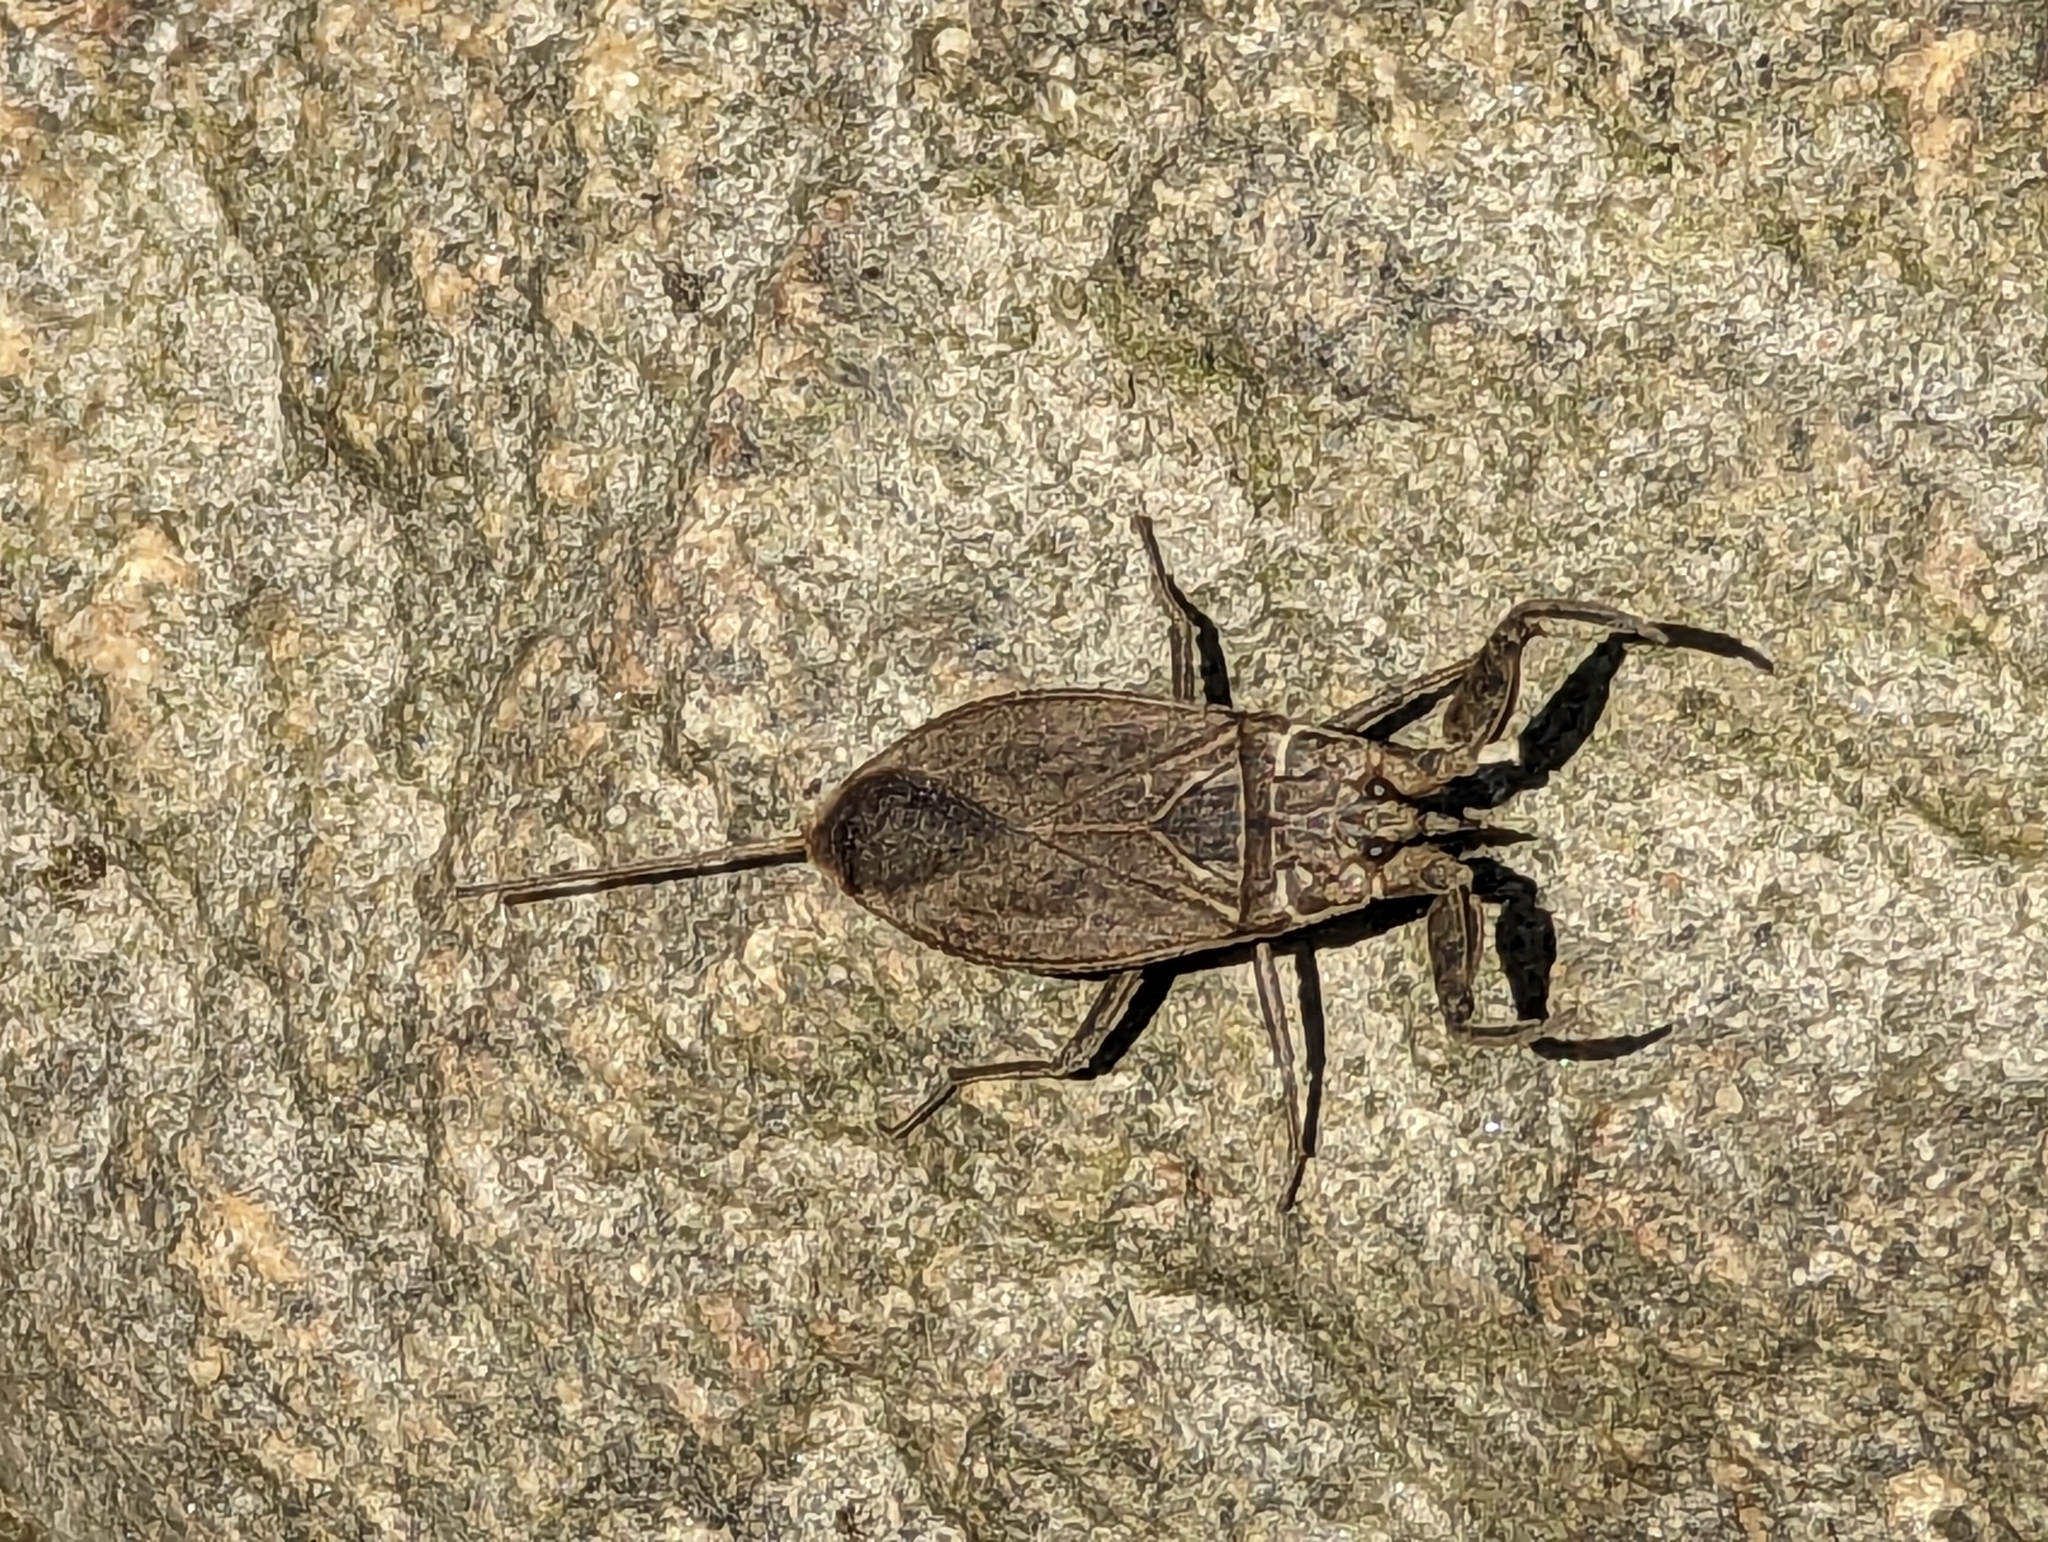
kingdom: Animalia
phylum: Arthropoda
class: Insecta
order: Hemiptera
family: Nepidae
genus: Nepa
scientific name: Nepa cinerea
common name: Water scorpion
